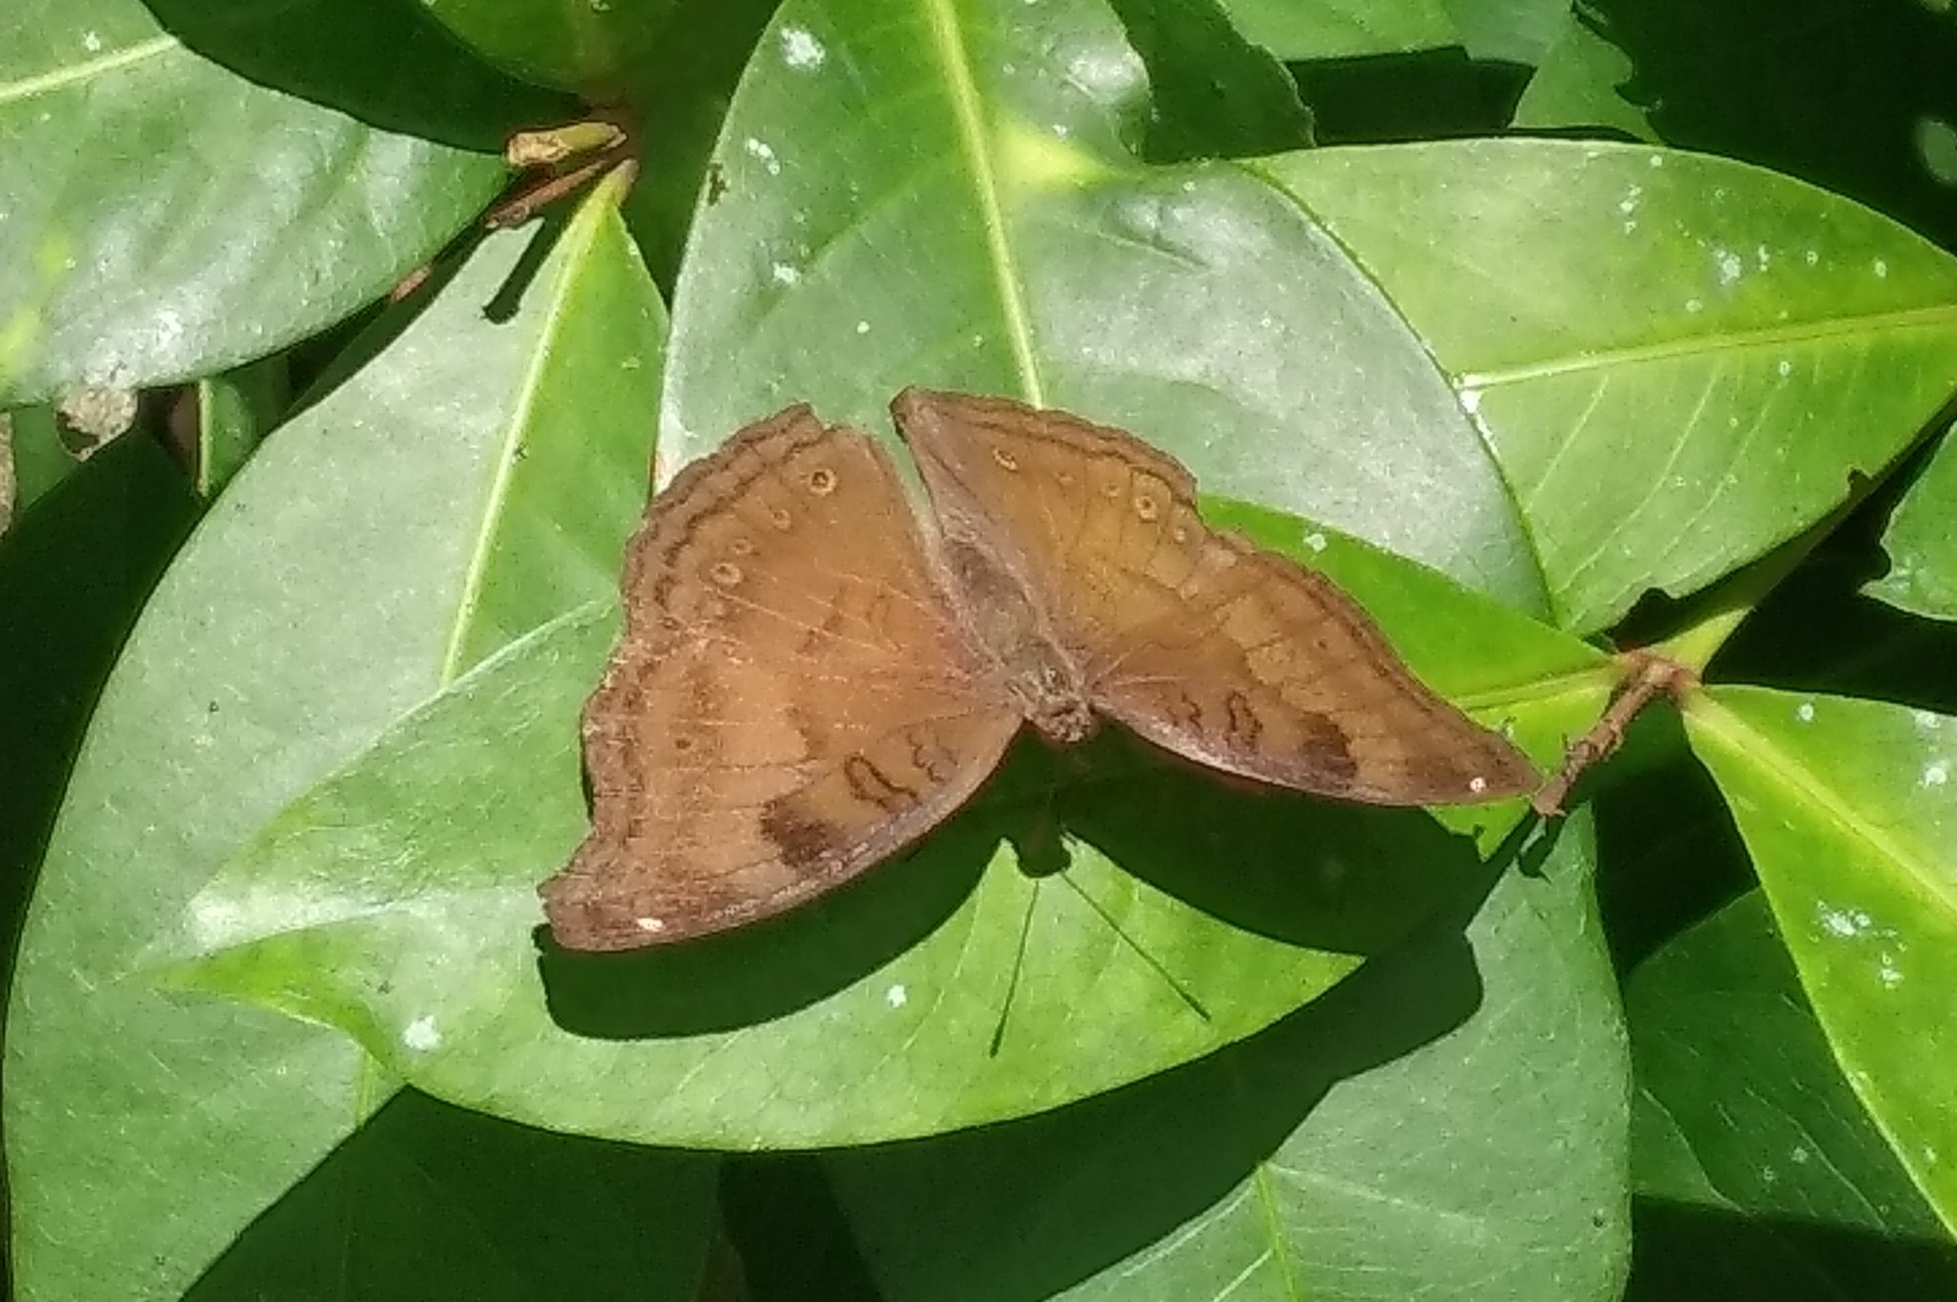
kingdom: Animalia
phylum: Arthropoda
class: Insecta
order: Lepidoptera
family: Nymphalidae
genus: Junonia
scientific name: Junonia iphita
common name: Chocolate pansy
